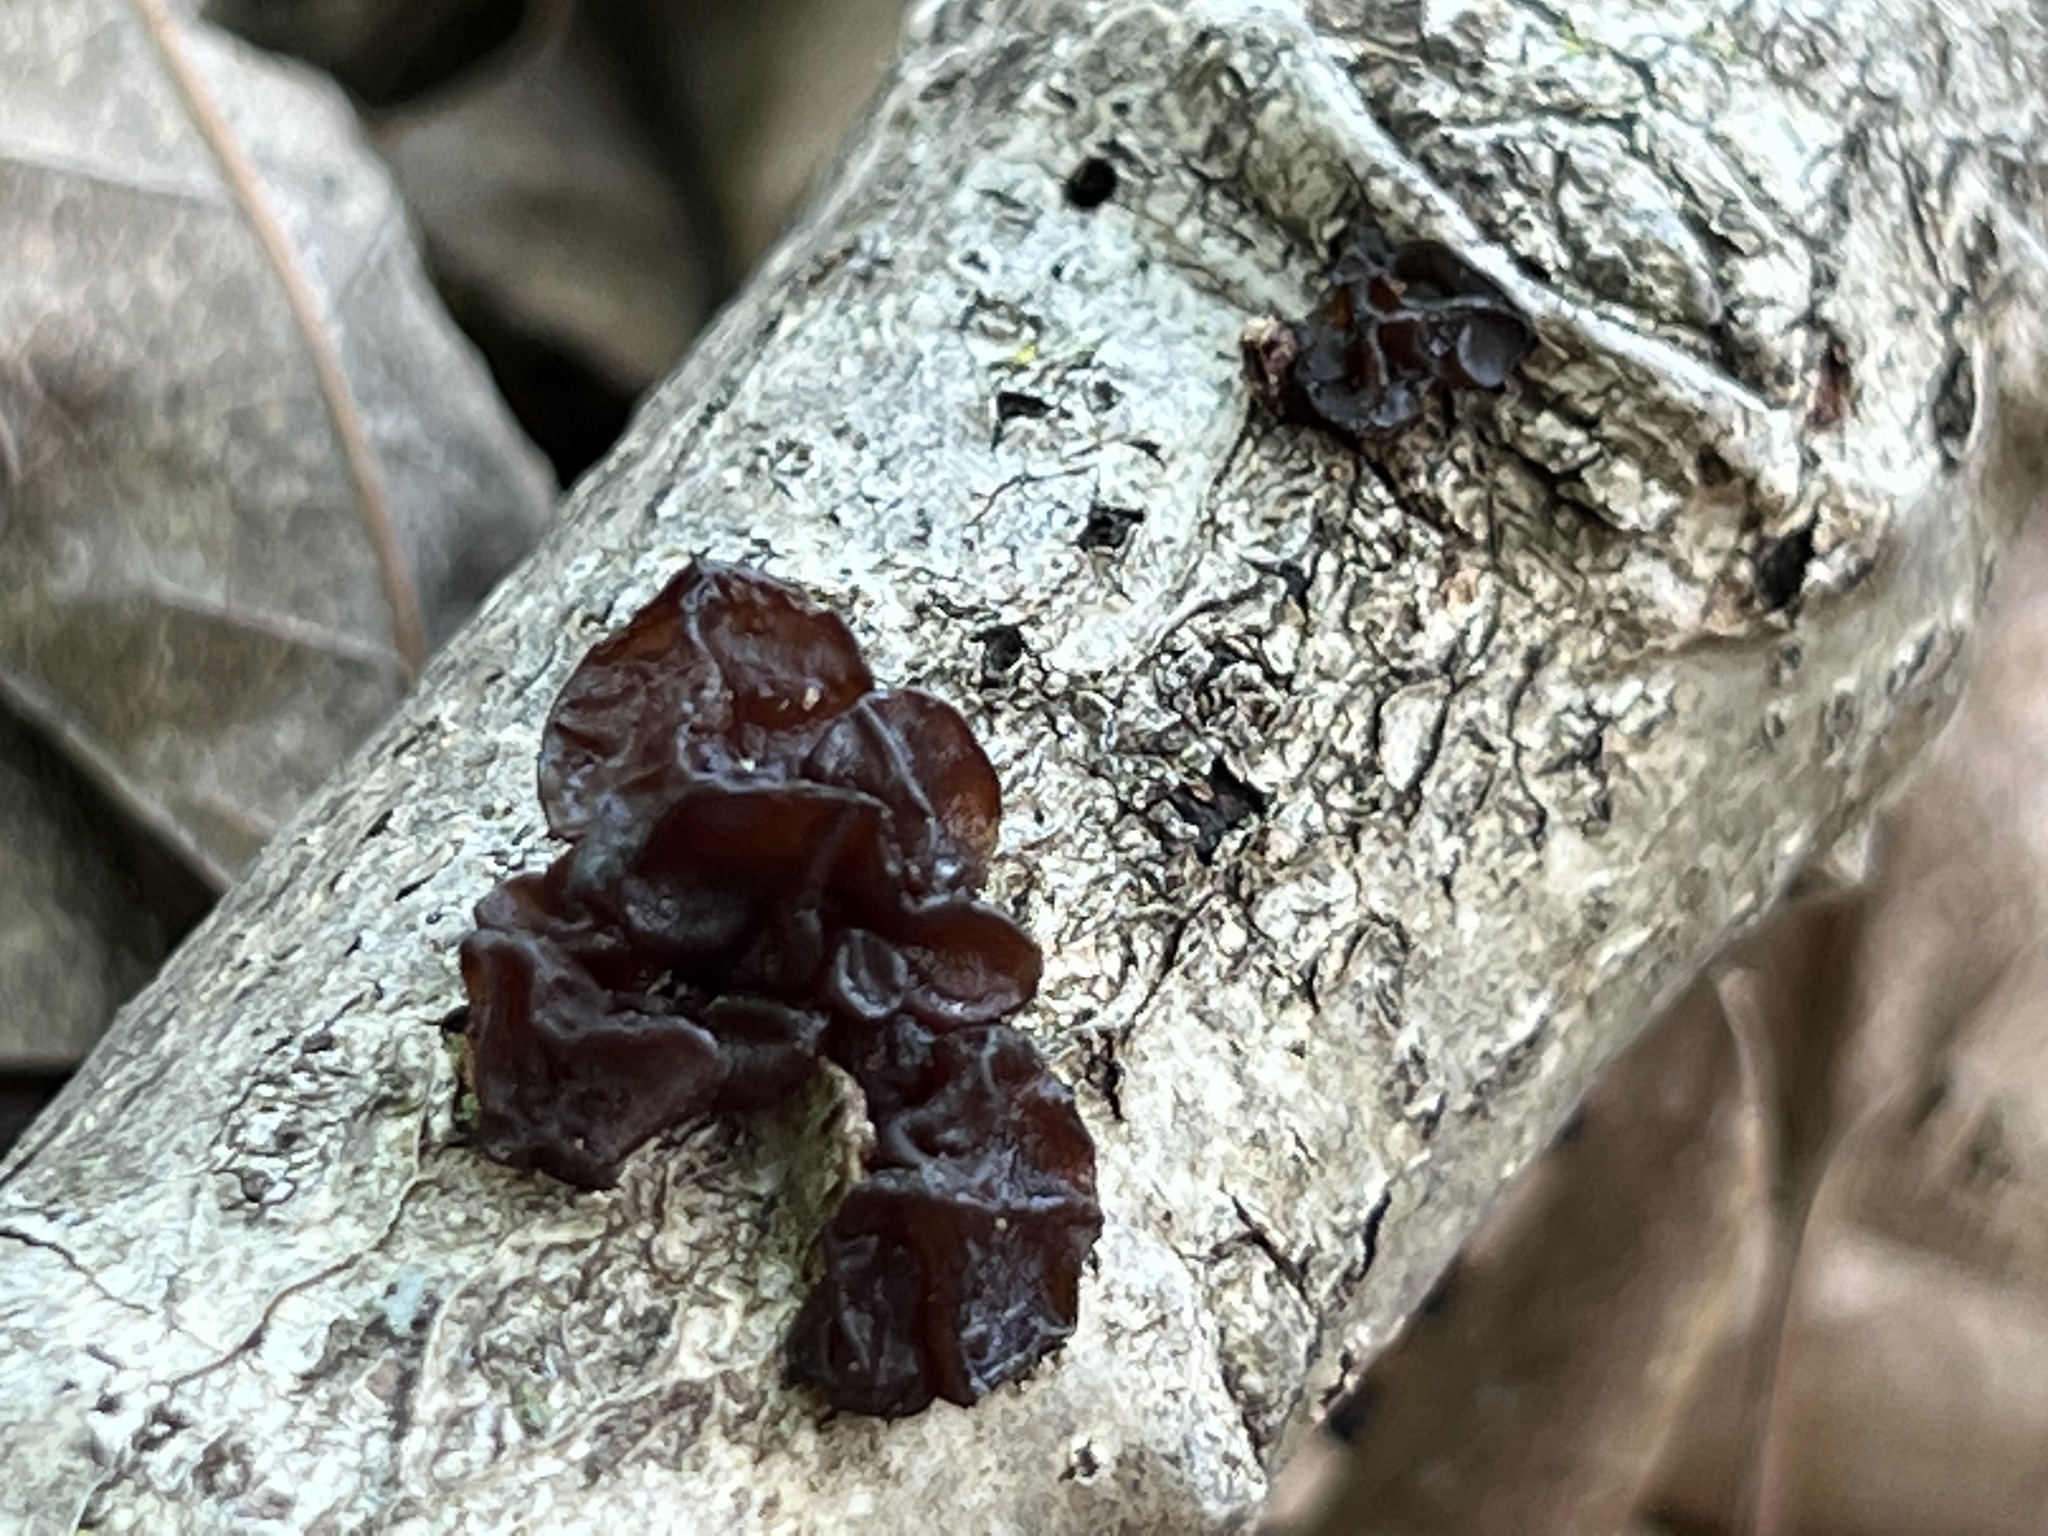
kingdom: Fungi
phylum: Basidiomycota
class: Agaricomycetes
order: Auriculariales
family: Auriculariaceae
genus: Exidia
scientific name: Exidia
